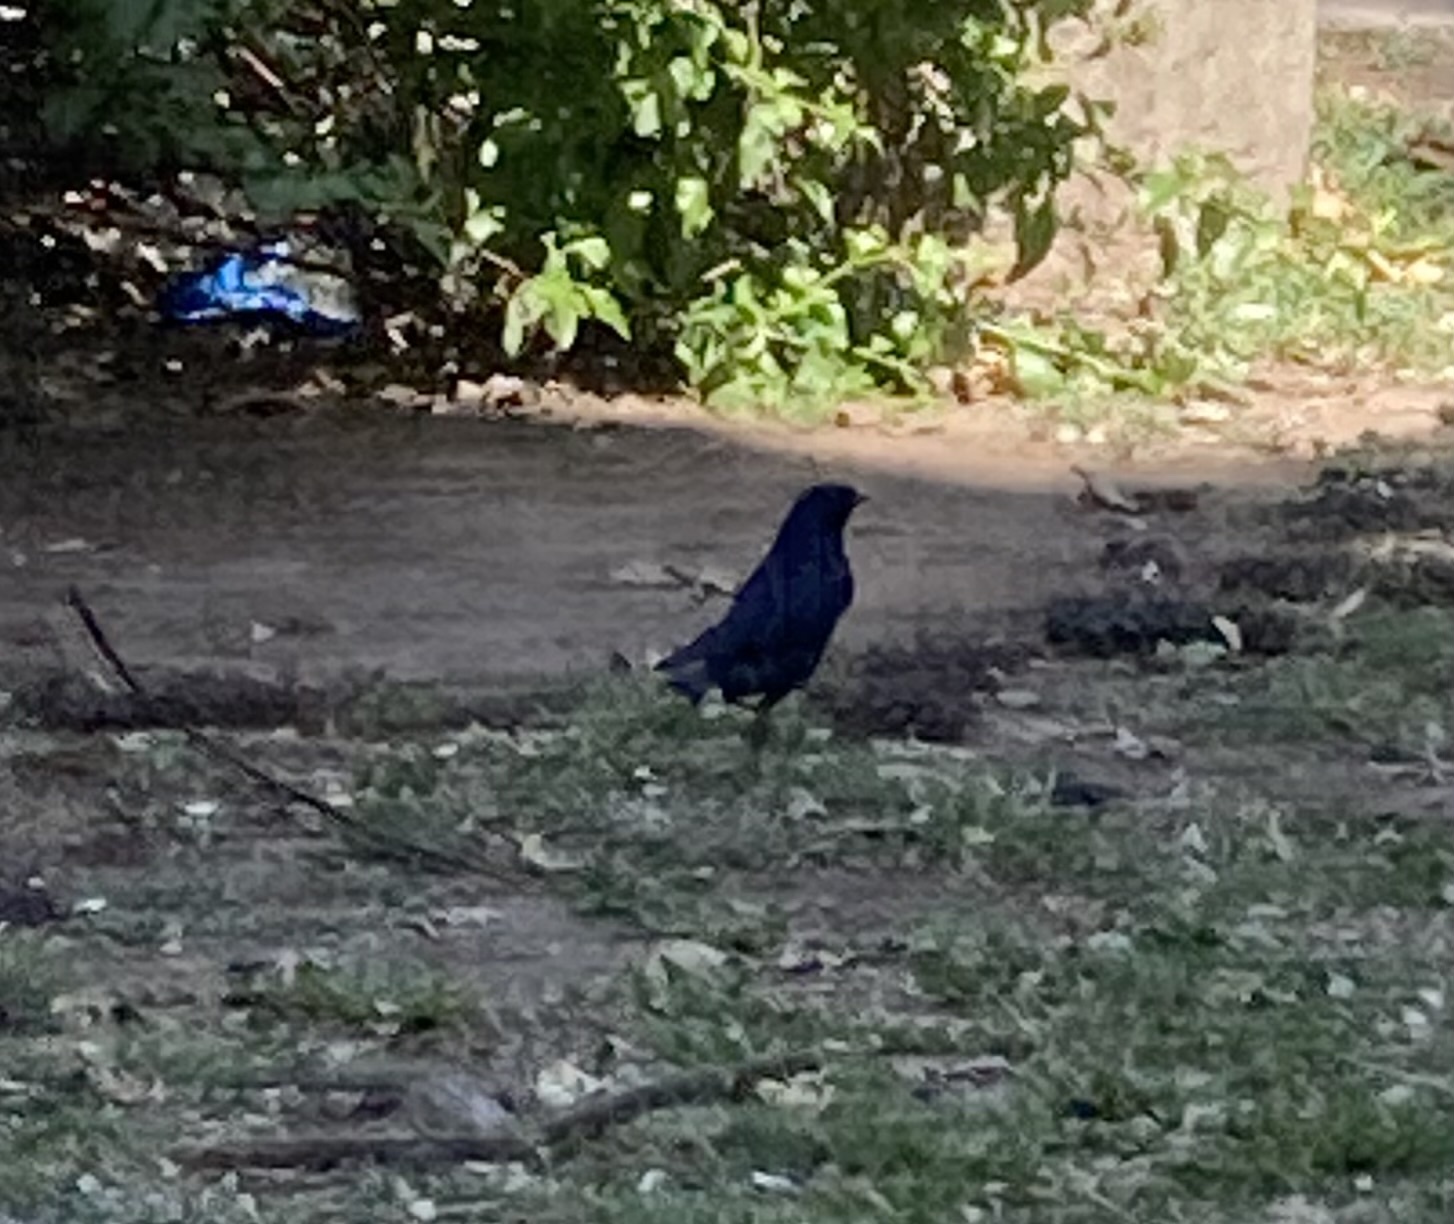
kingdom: Animalia
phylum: Chordata
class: Aves
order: Passeriformes
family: Icteridae
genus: Molothrus
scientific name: Molothrus bonariensis
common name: Shiny cowbird
